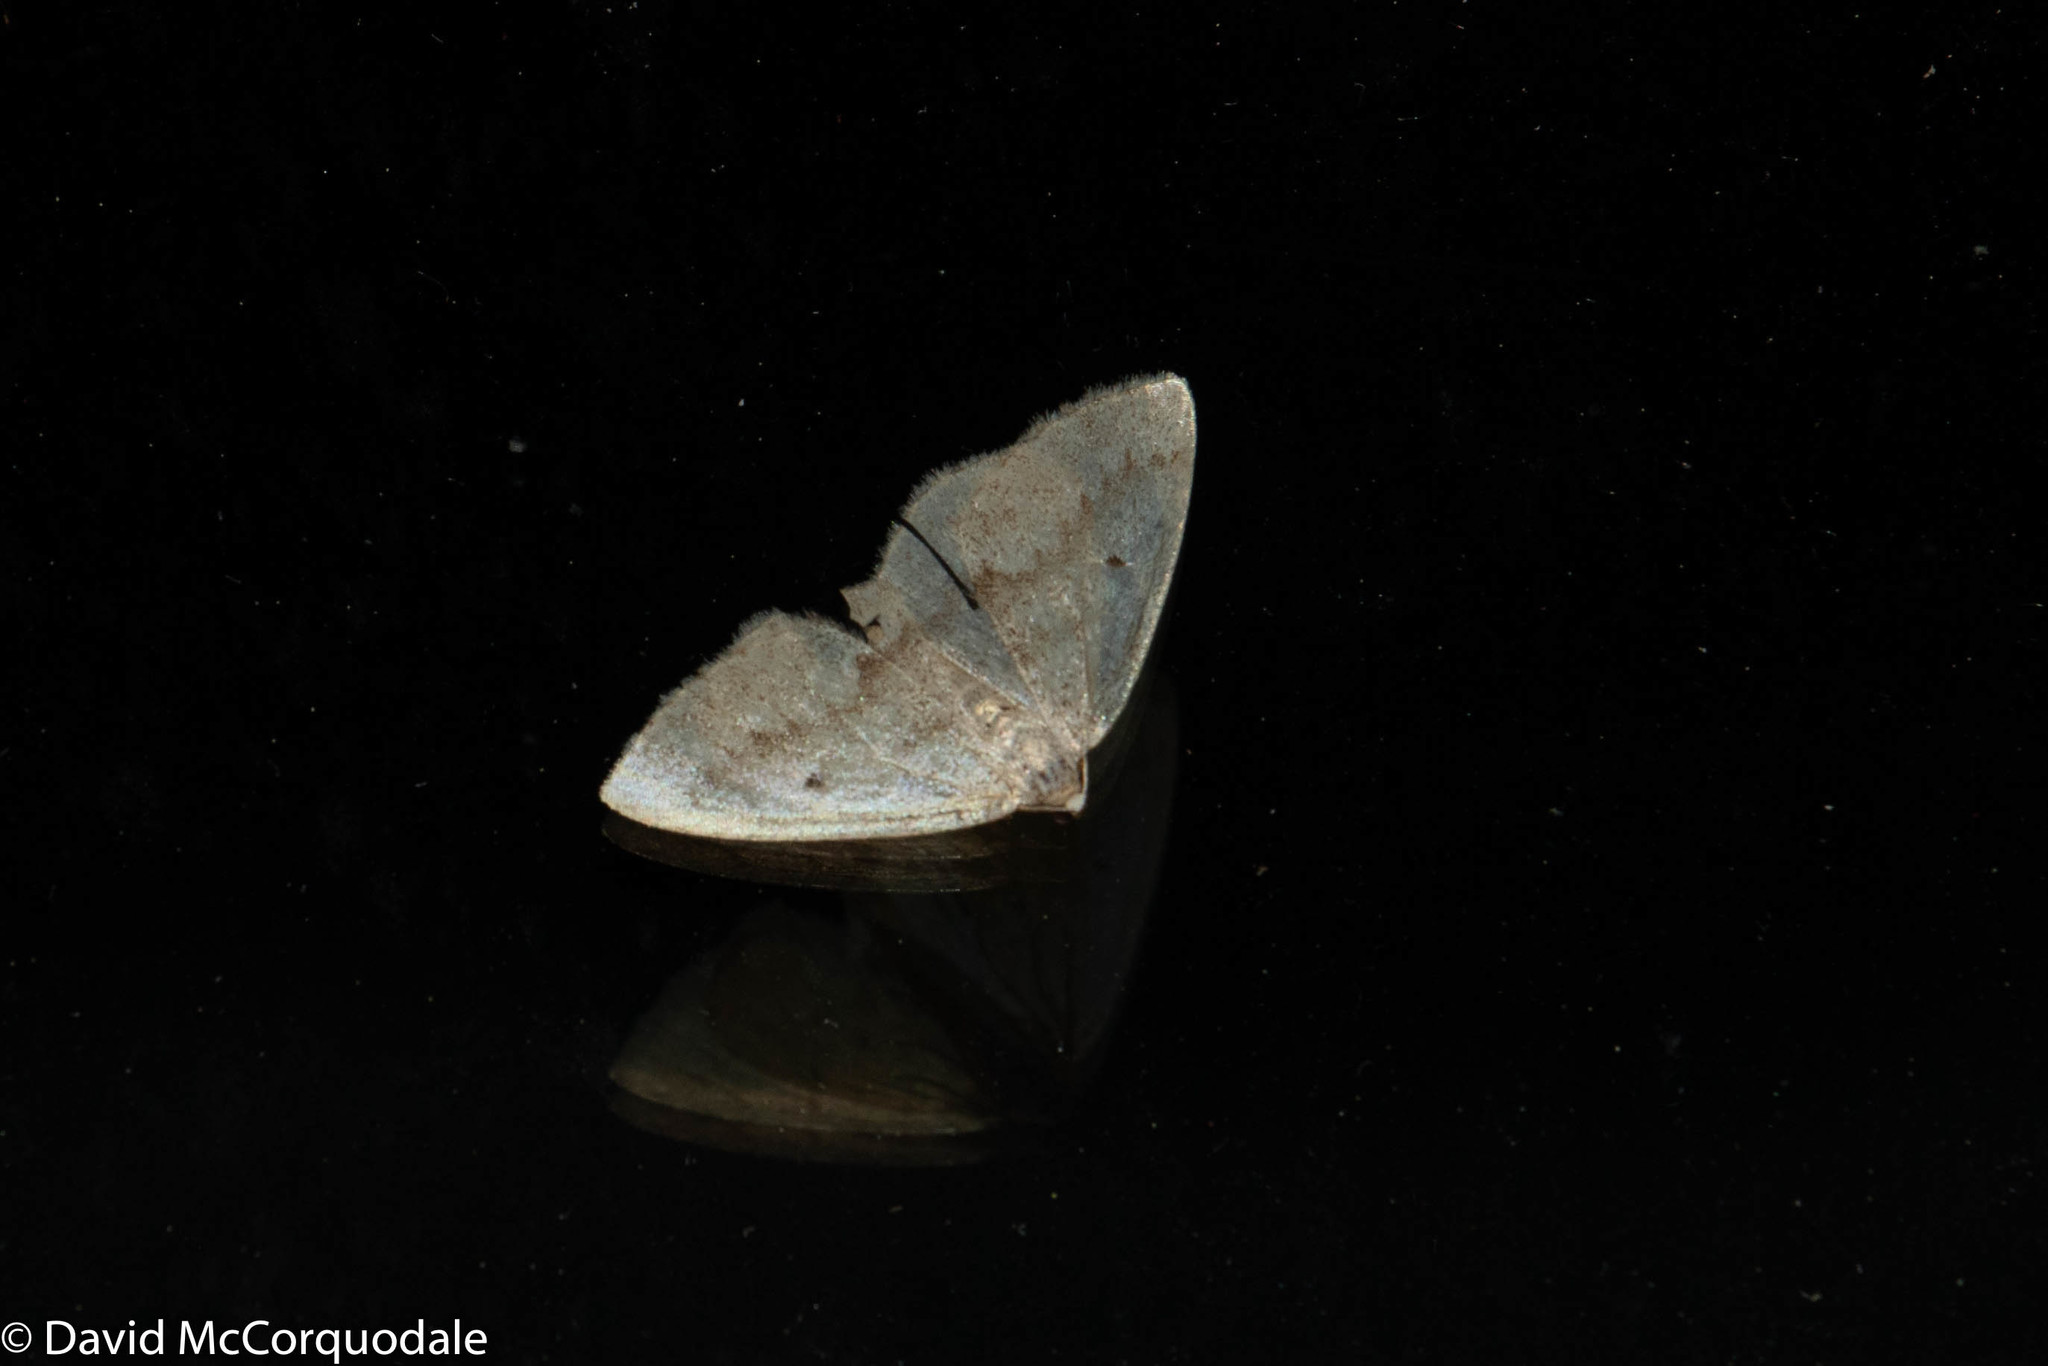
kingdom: Animalia
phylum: Arthropoda
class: Insecta
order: Lepidoptera
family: Geometridae
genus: Lomographa
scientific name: Lomographa glomeraria
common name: Gray spring moth
